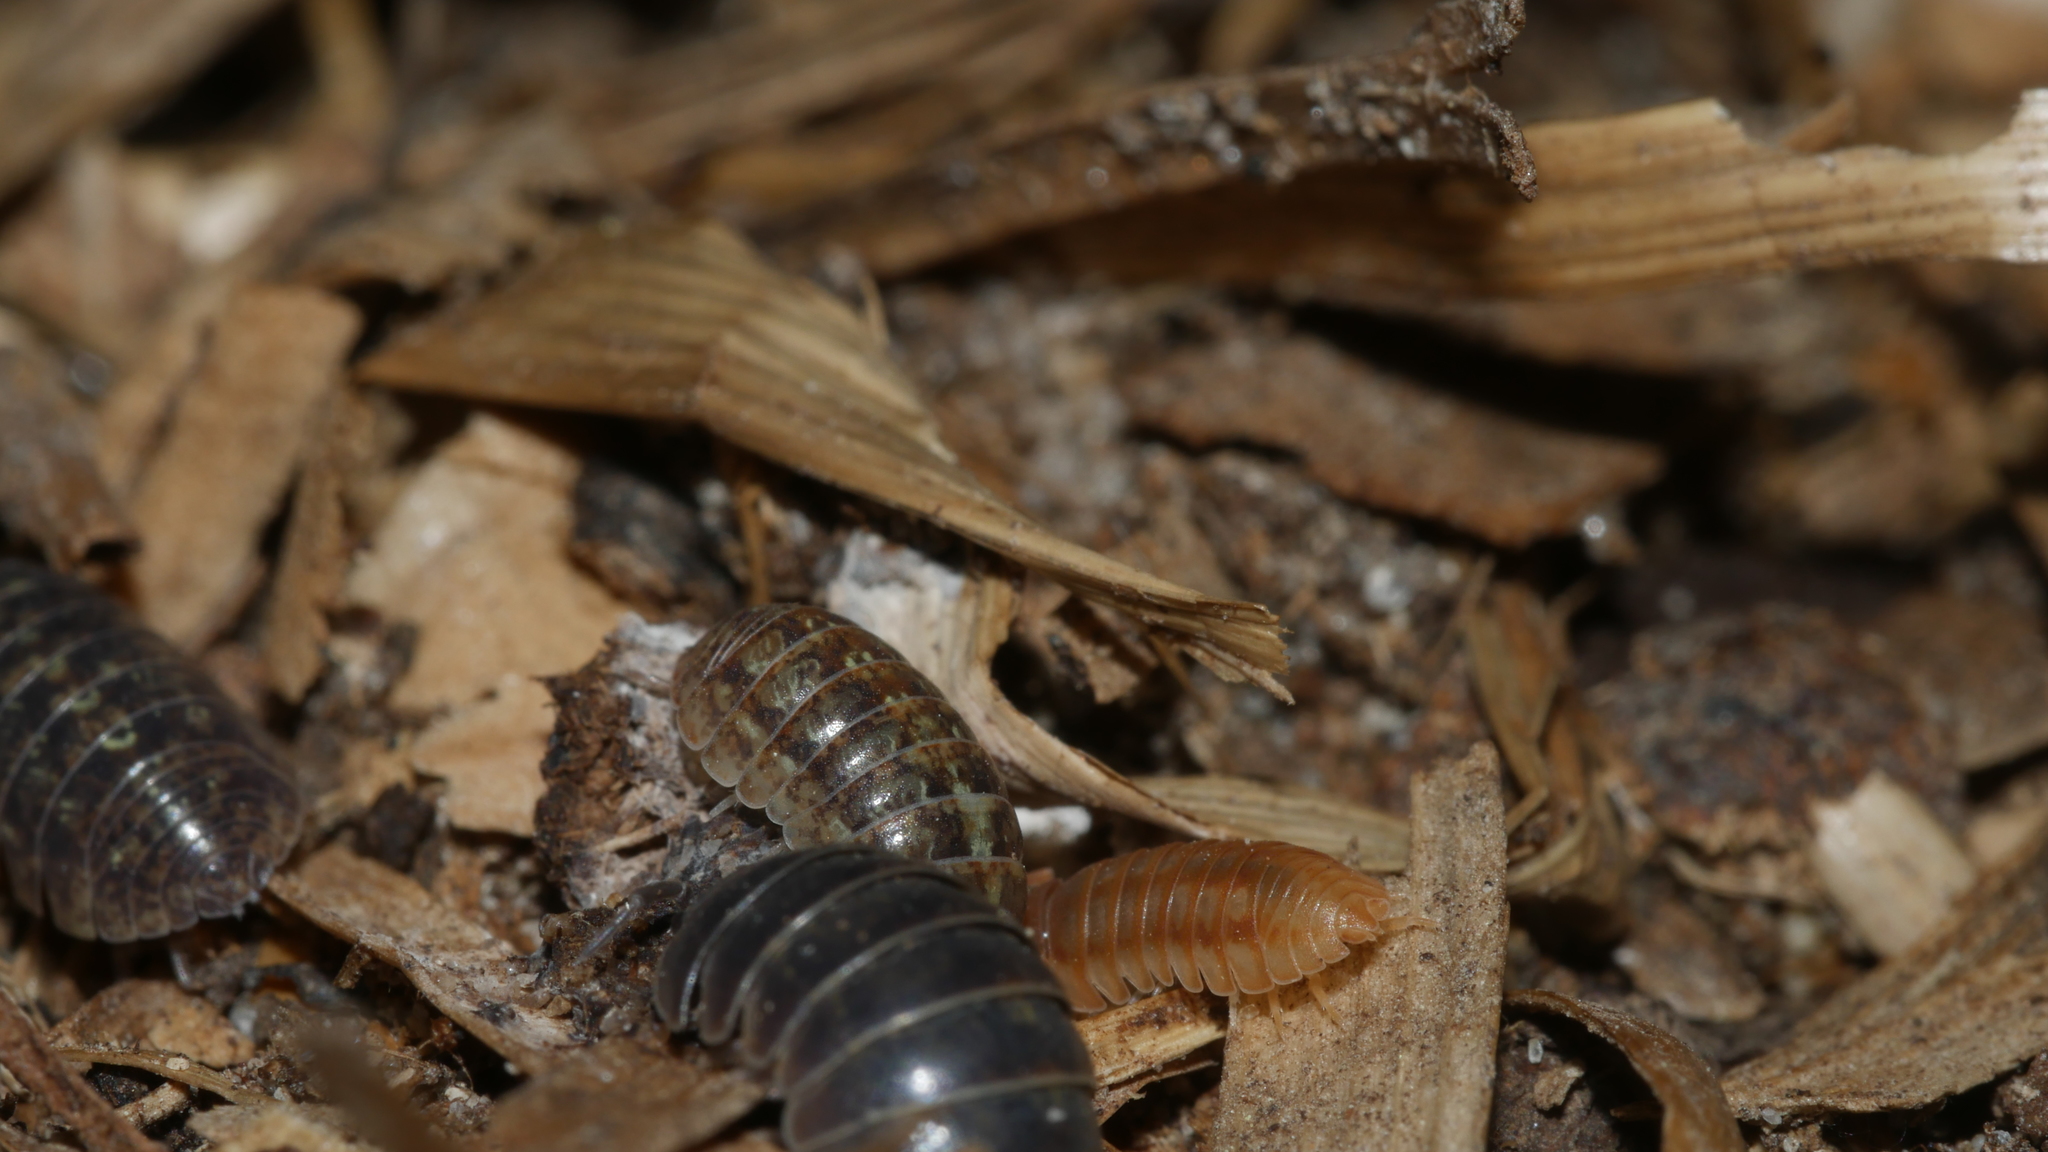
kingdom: Animalia
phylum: Arthropoda
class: Malacostraca
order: Isopoda
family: Armadillidiidae
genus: Armadillidium
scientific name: Armadillidium vulgare
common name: Common pill woodlouse
